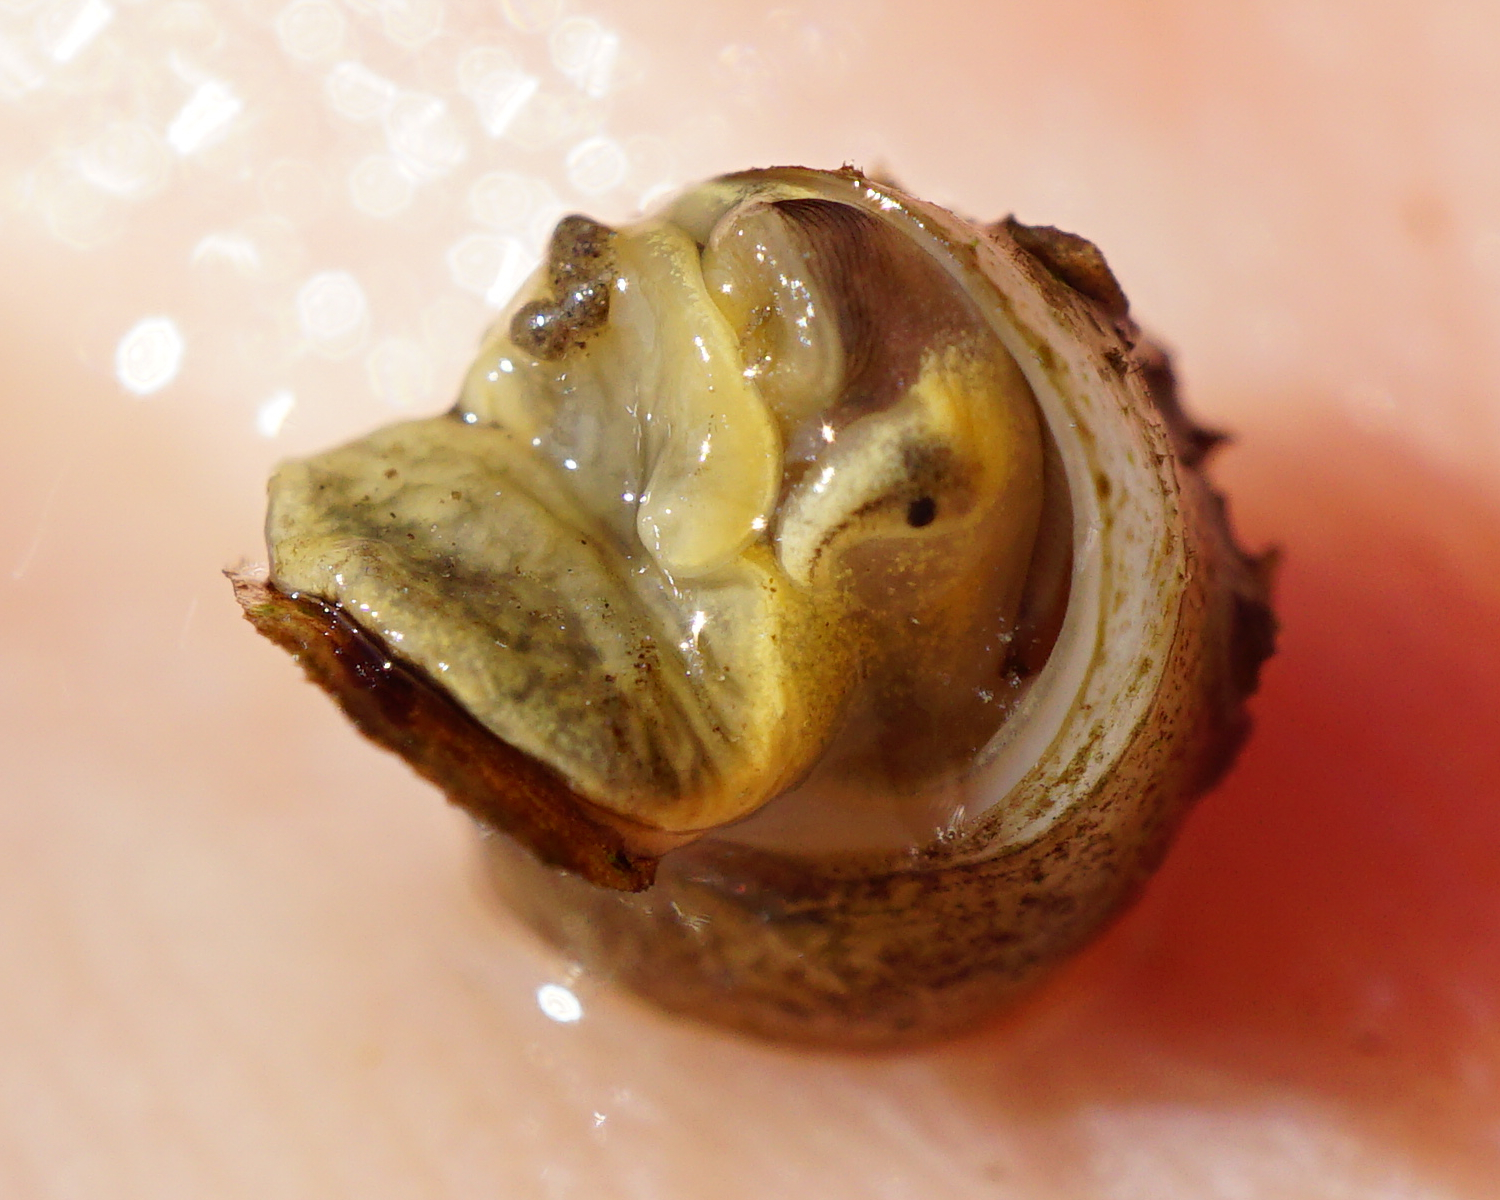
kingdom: Animalia
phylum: Mollusca
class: Gastropoda
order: Littorinimorpha
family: Lithoglyphidae
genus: Lithoglyphus
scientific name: Lithoglyphus naticoides
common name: Gravel snail
